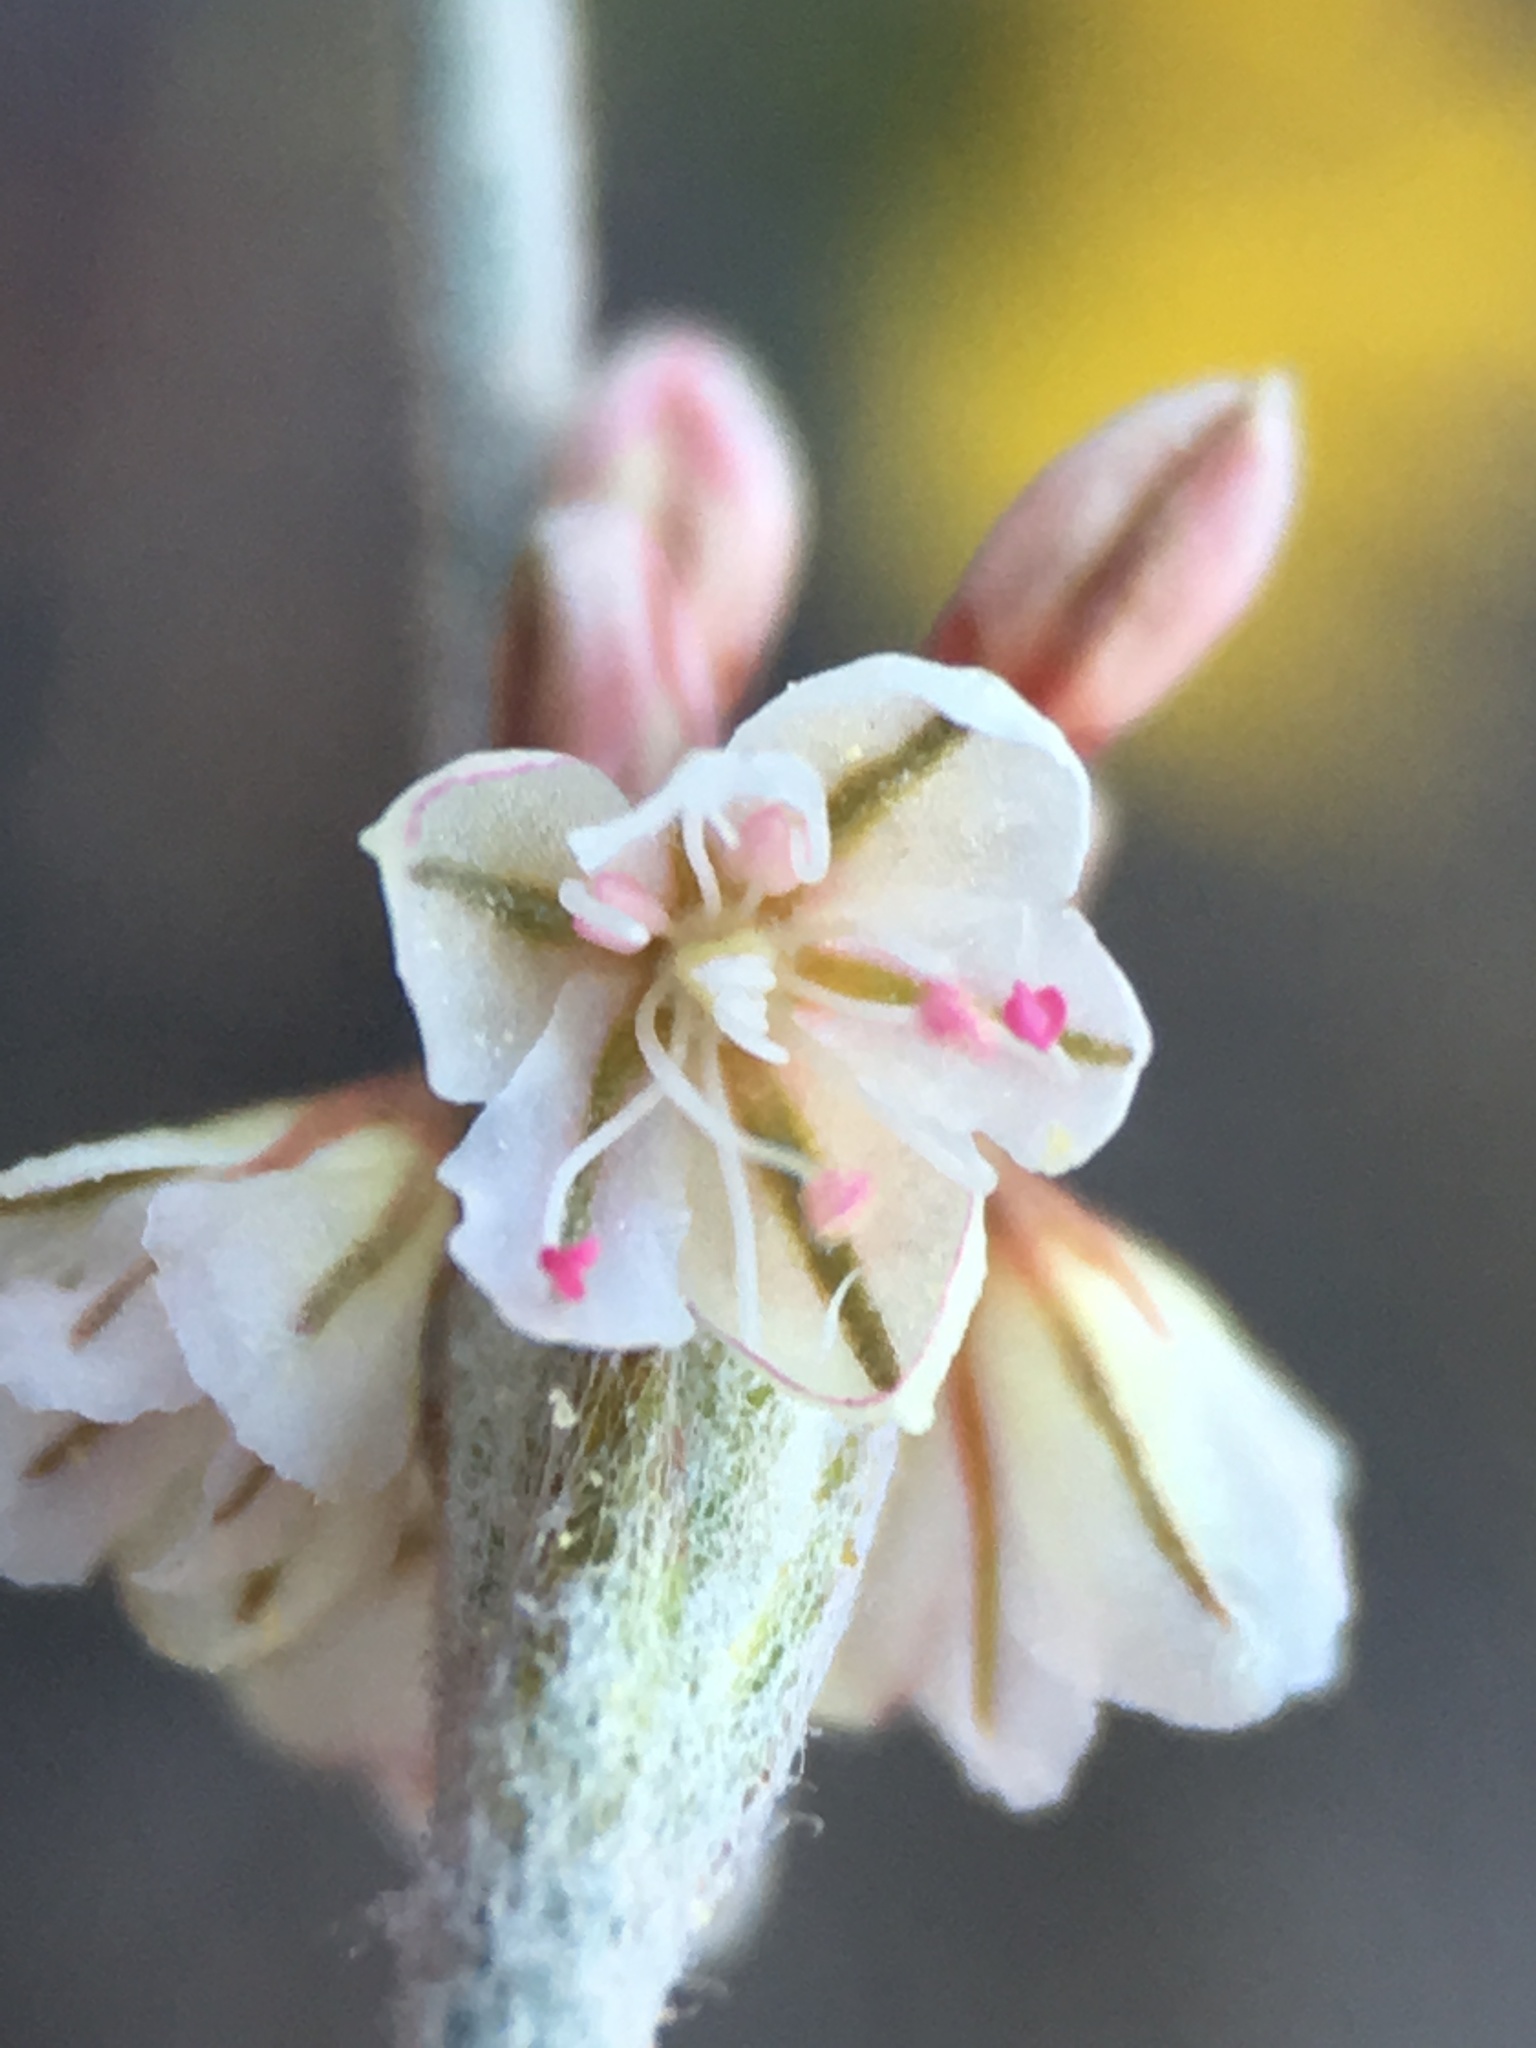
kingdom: Plantae
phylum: Tracheophyta
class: Magnoliopsida
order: Caryophyllales
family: Polygonaceae
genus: Eriogonum
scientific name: Eriogonum roseum
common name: Wand wild buckwheat
